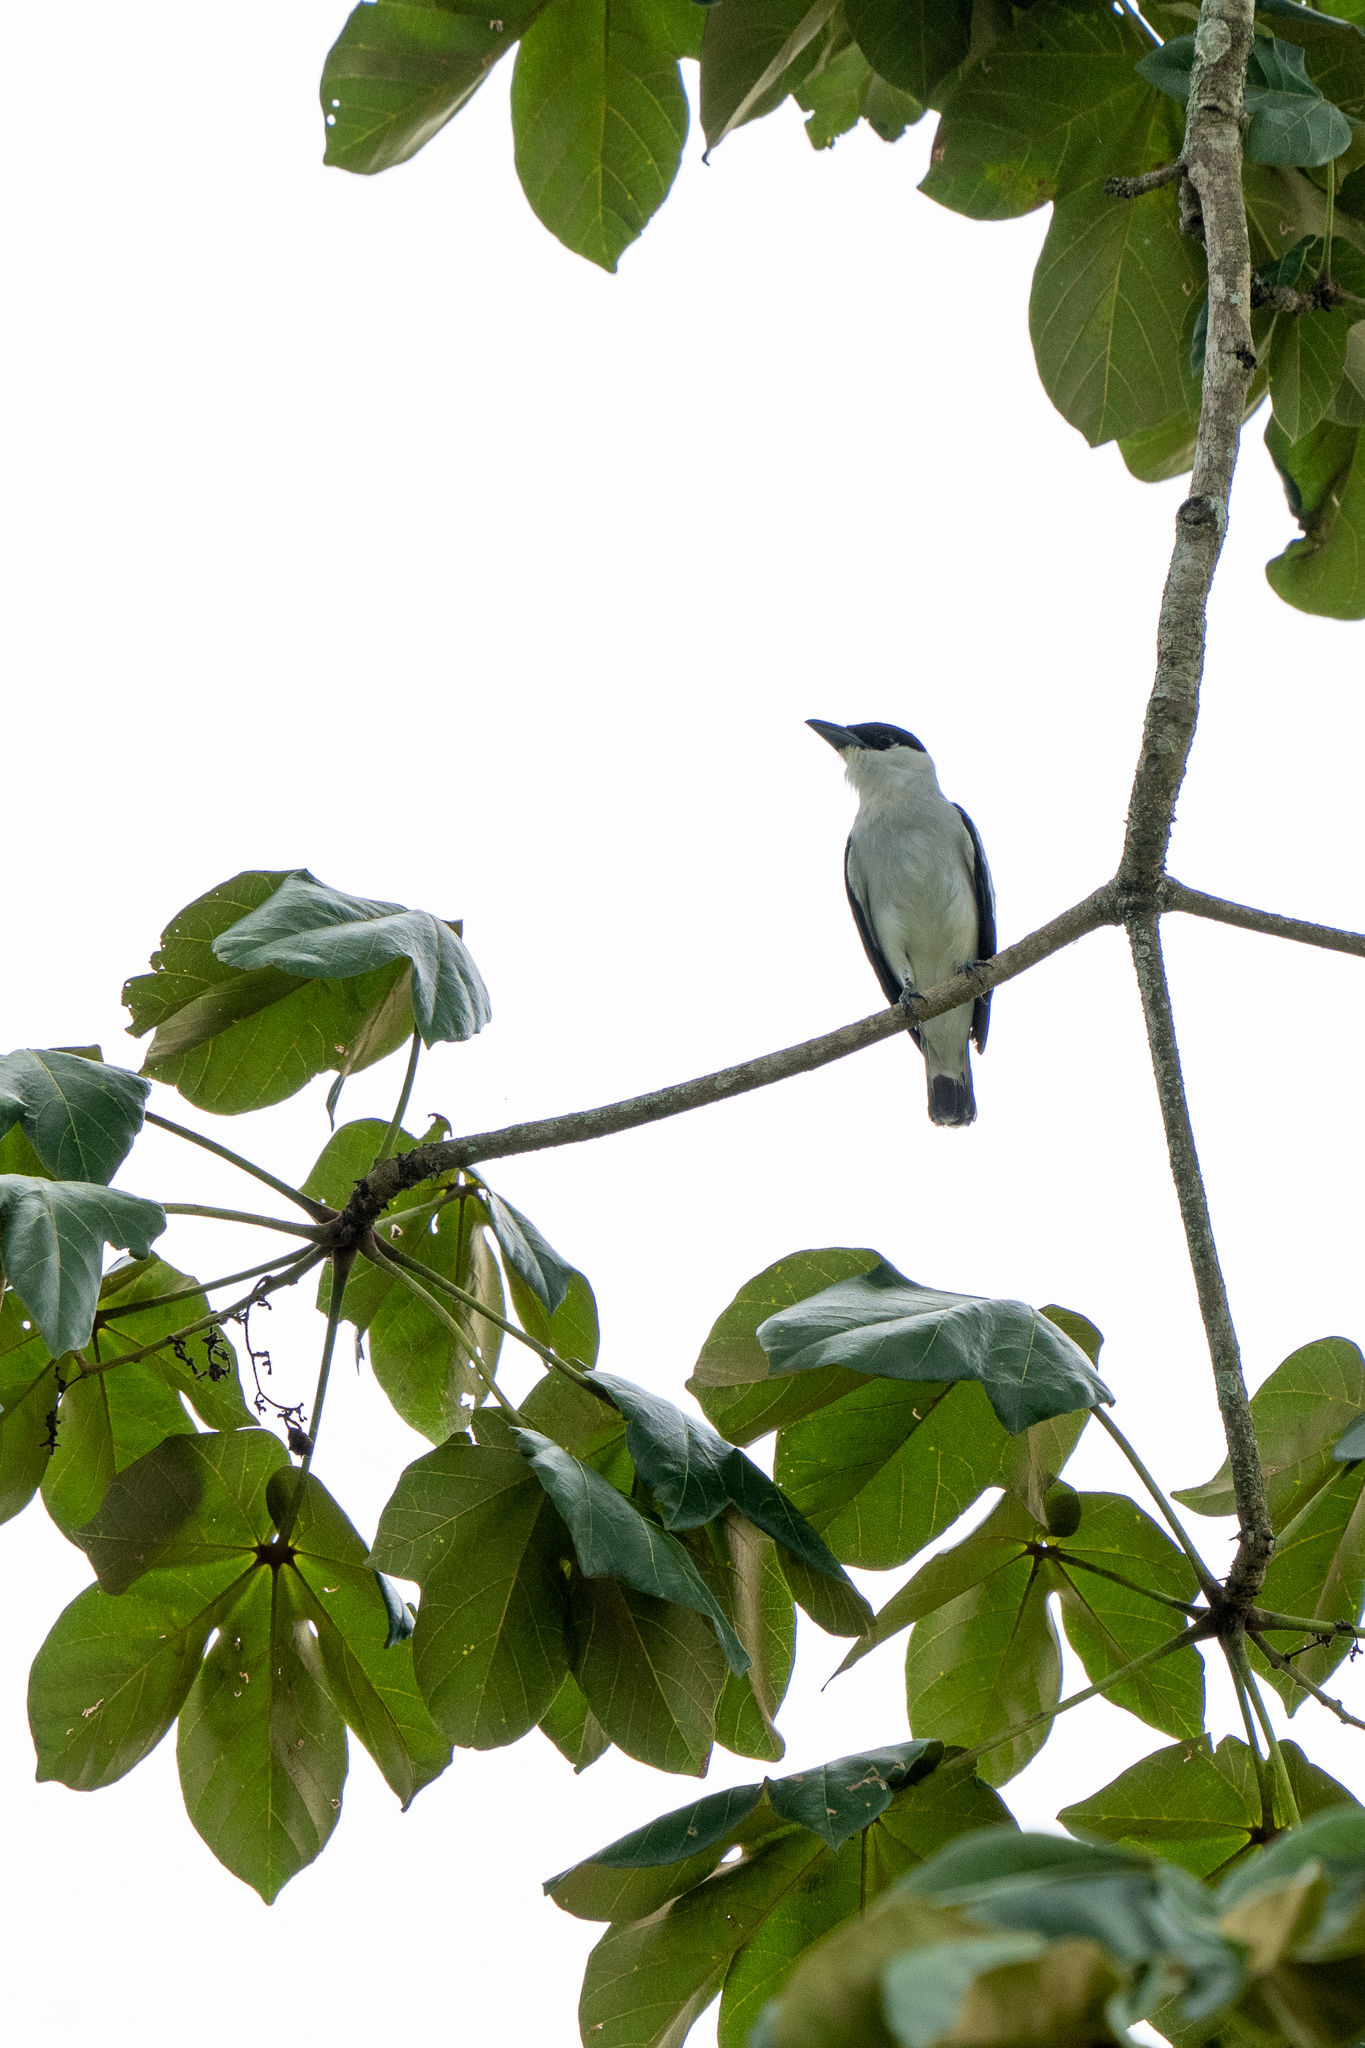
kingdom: Animalia
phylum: Chordata
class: Aves
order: Passeriformes
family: Cotingidae
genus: Tityra
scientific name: Tityra inquisitor
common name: Black-crowned tityra
